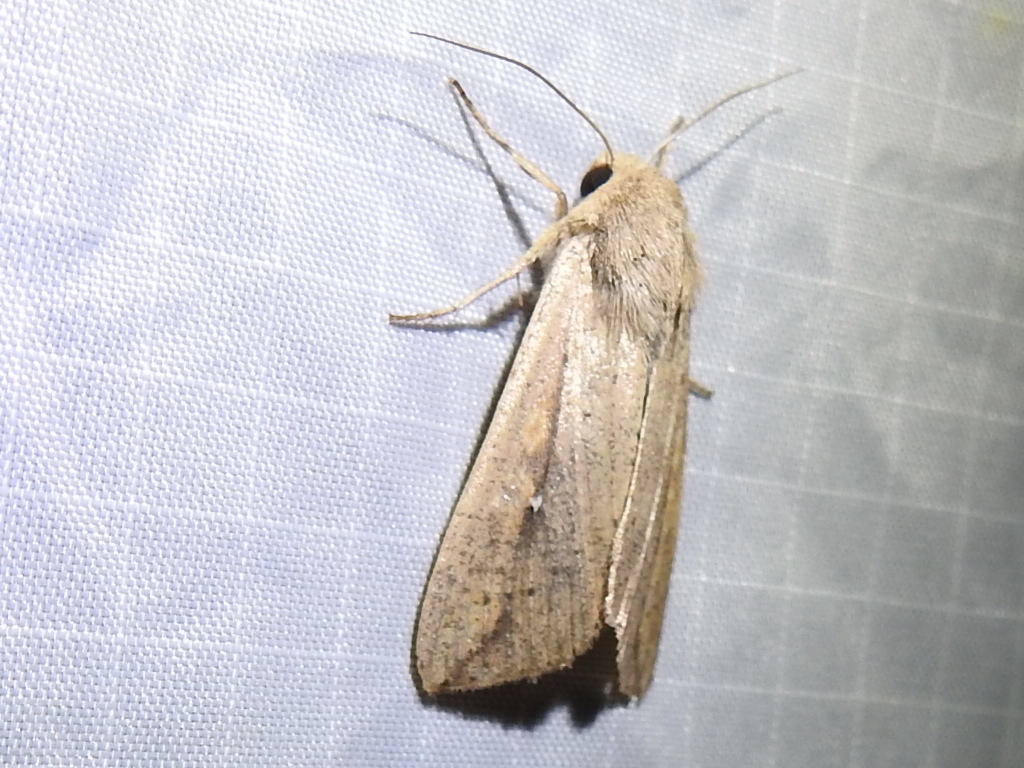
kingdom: Animalia
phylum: Arthropoda
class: Insecta
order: Lepidoptera
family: Noctuidae
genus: Mythimna
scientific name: Mythimna unipuncta
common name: White-speck
